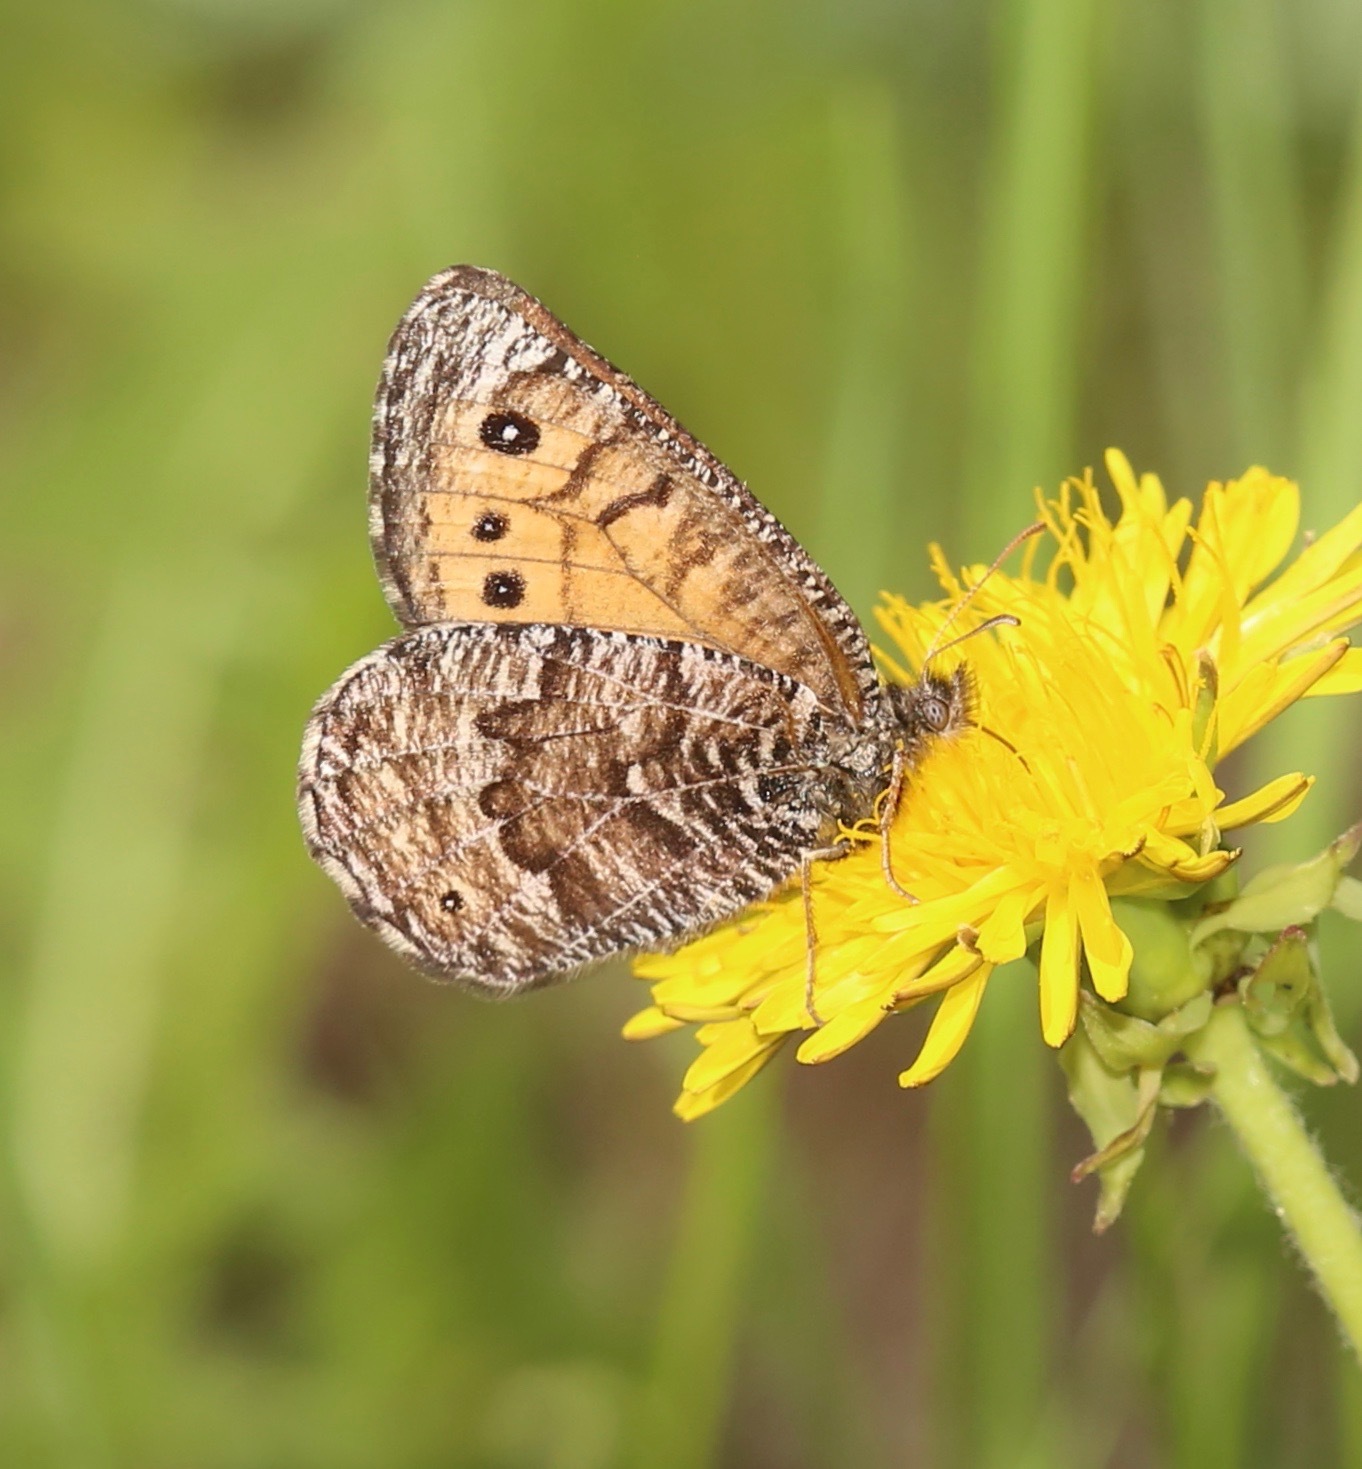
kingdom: Animalia
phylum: Arthropoda
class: Insecta
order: Lepidoptera
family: Nymphalidae
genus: Oeneis
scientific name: Oeneis chryxus
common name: Chryxus arctic
